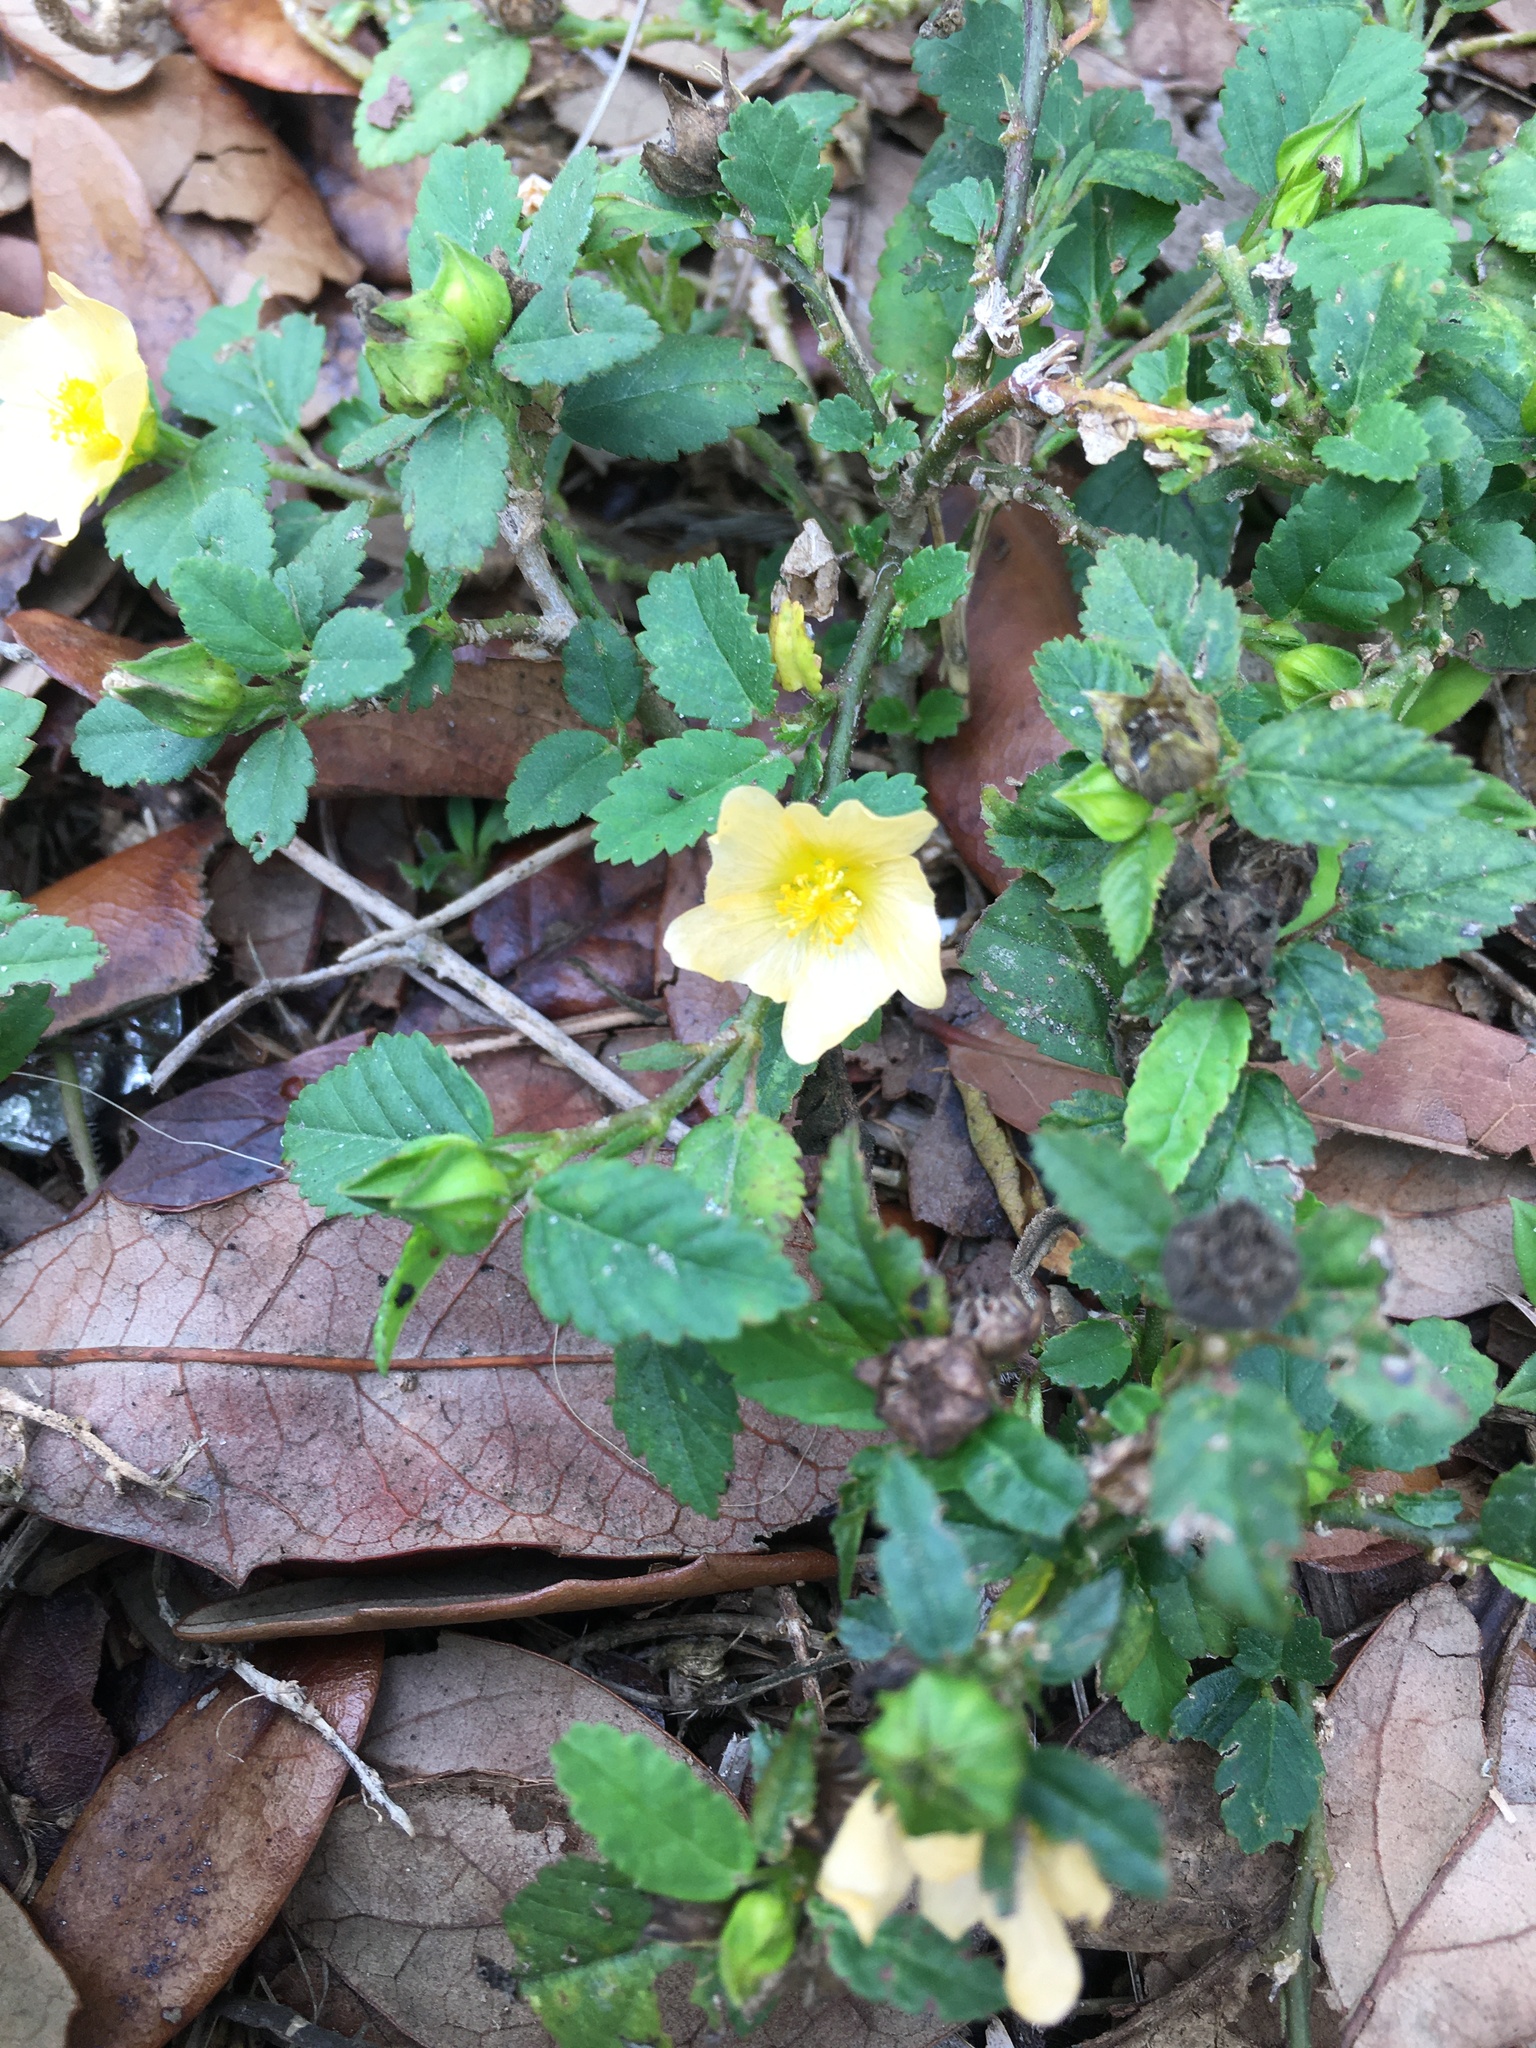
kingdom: Plantae
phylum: Tracheophyta
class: Magnoliopsida
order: Malvales
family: Malvaceae
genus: Sida
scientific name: Sida ulmifolia
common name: Broom weed
